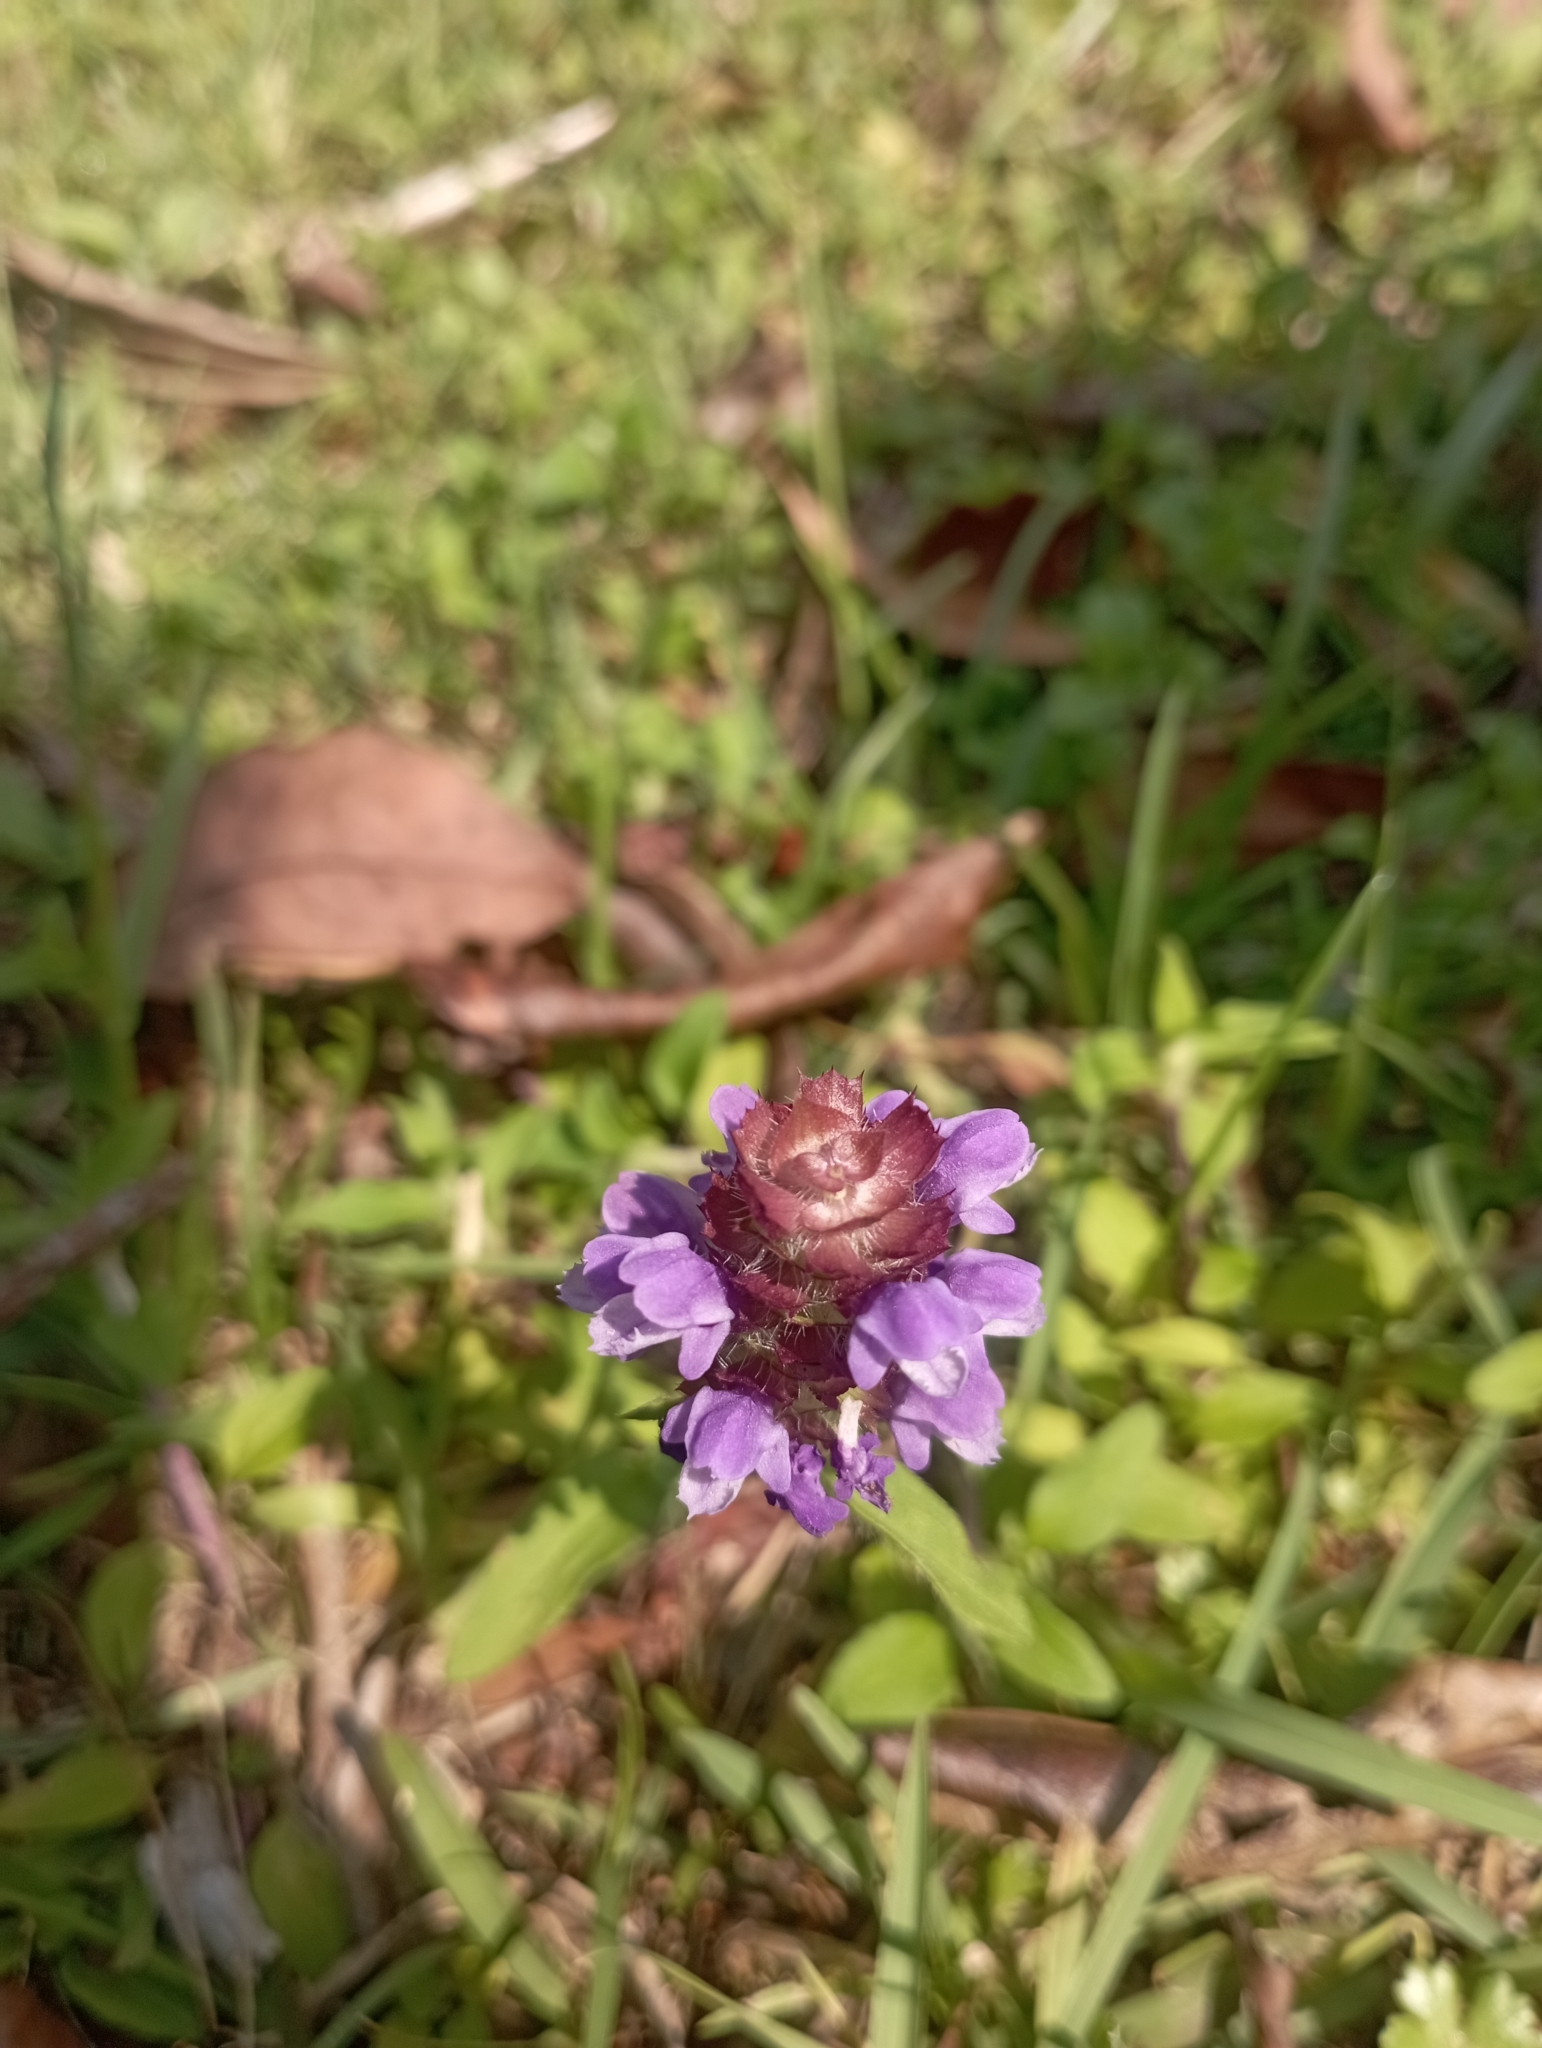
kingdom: Plantae
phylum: Tracheophyta
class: Magnoliopsida
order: Lamiales
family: Lamiaceae
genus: Prunella
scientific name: Prunella vulgaris
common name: Heal-all
